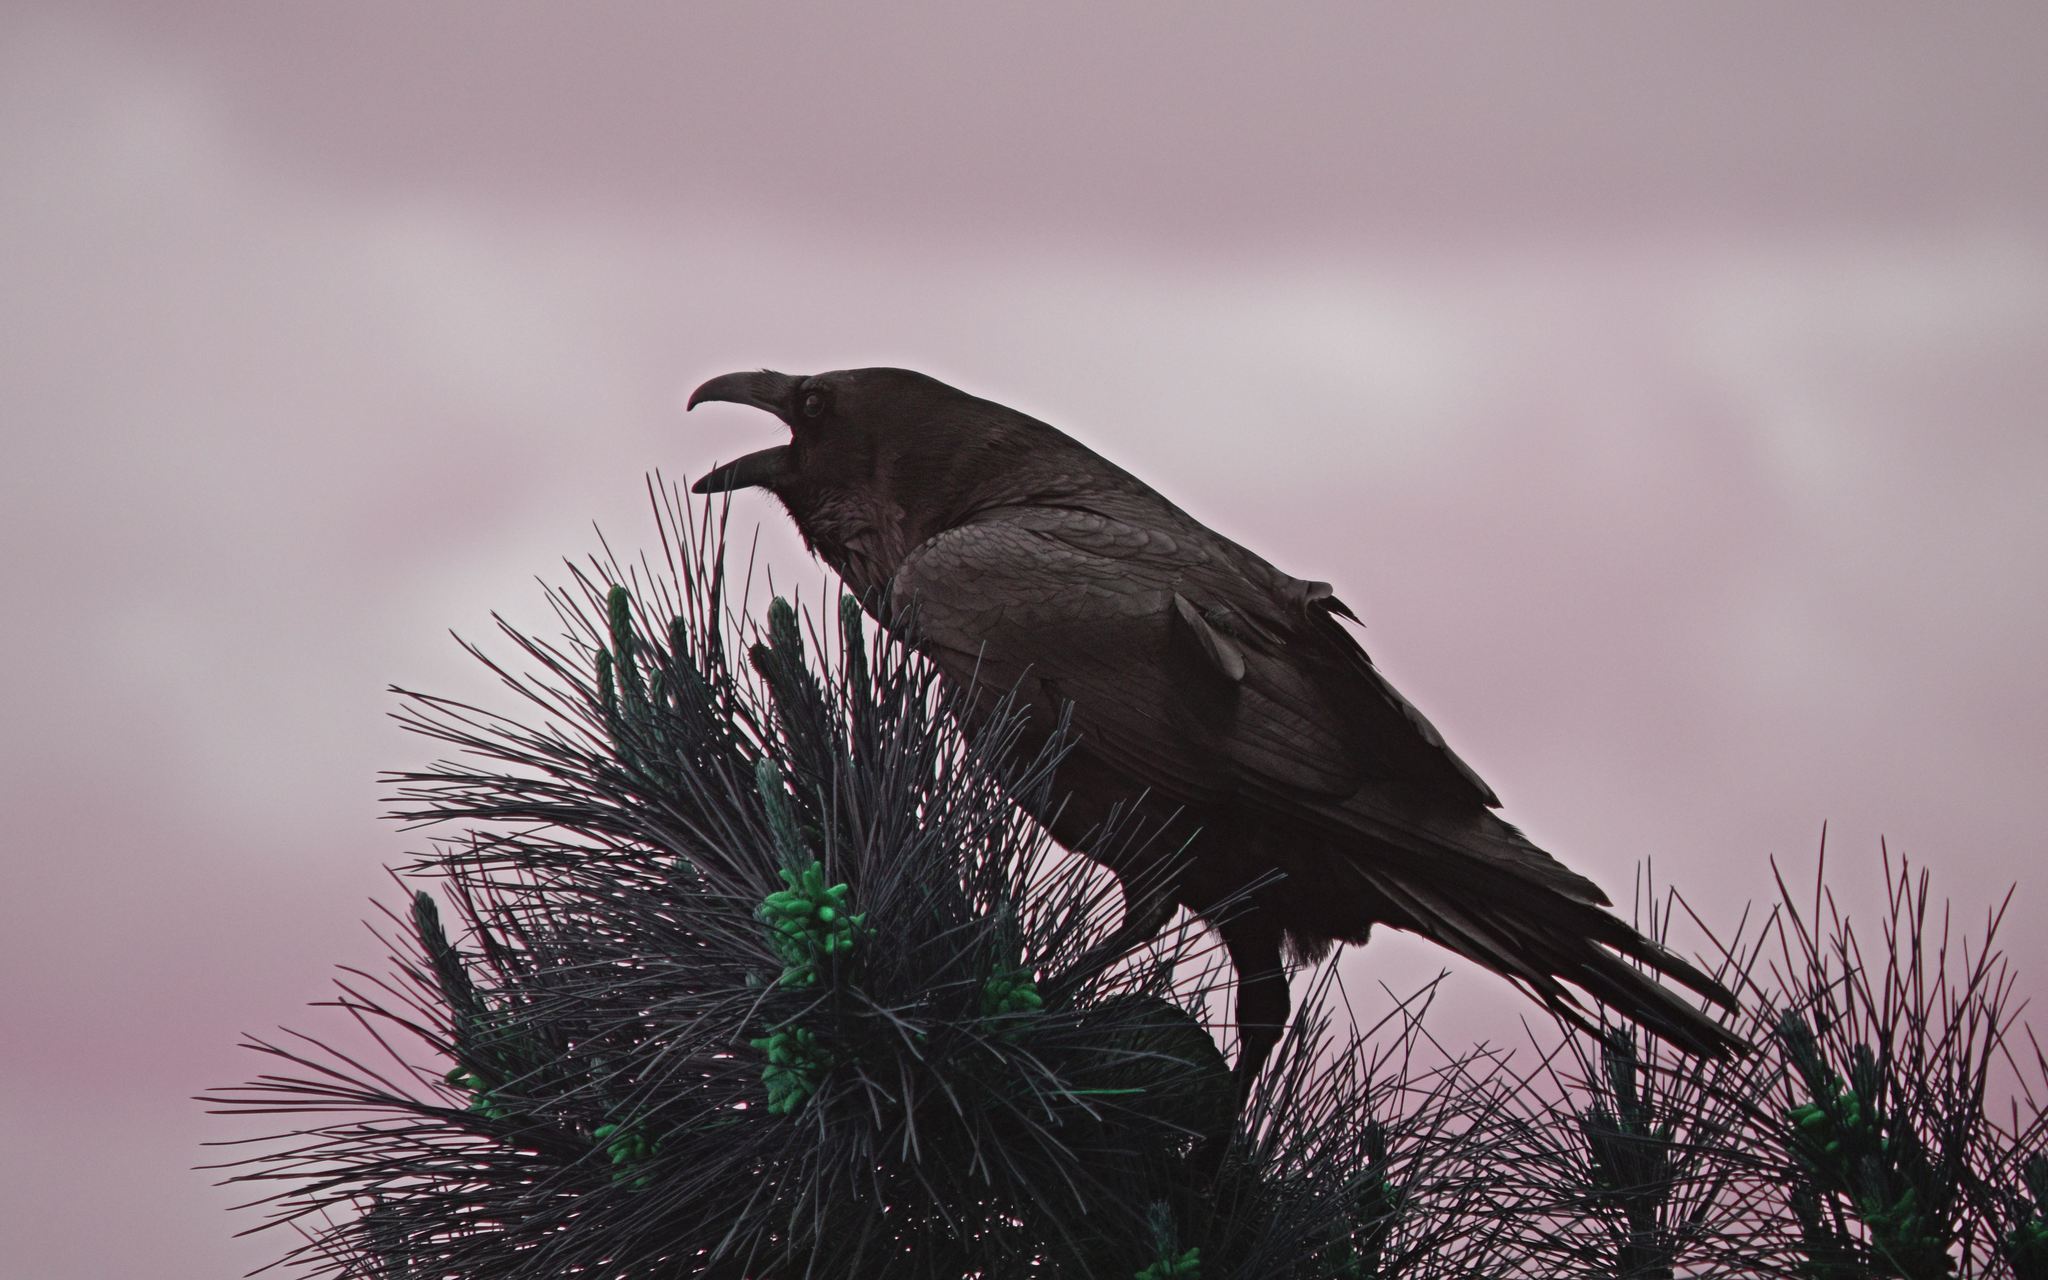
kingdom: Animalia
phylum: Chordata
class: Aves
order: Passeriformes
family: Corvidae
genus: Corvus
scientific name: Corvus corax
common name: Common raven
